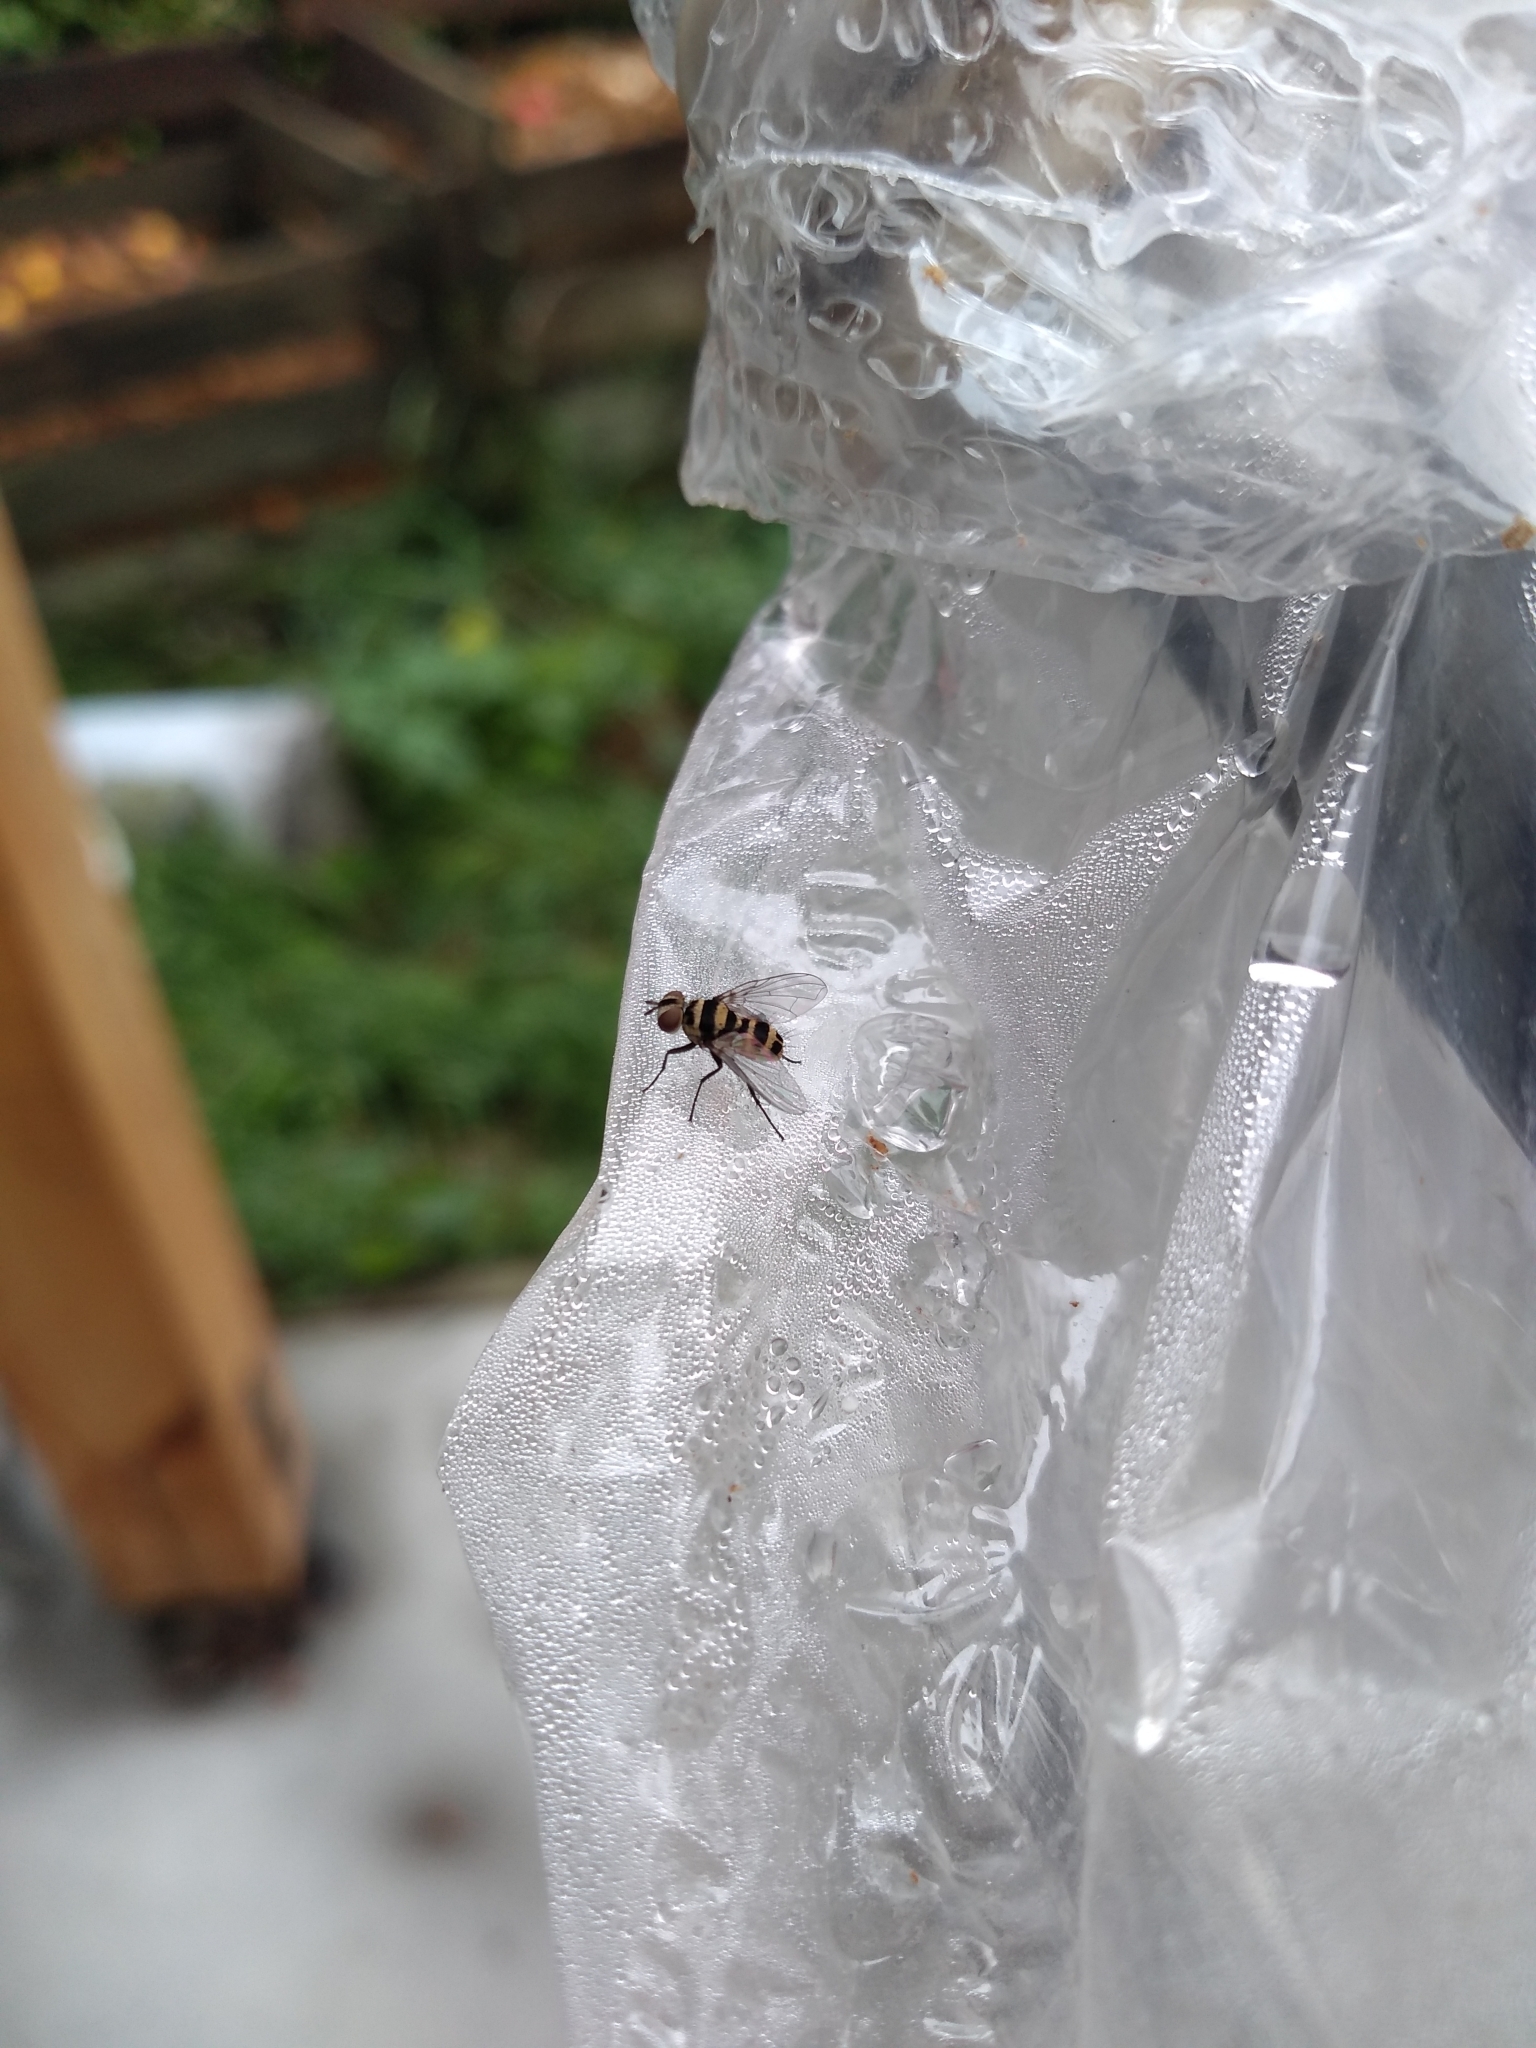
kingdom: Animalia
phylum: Arthropoda
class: Insecta
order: Diptera
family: Tachinidae
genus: Trigonospila
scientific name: Trigonospila brevifacies
